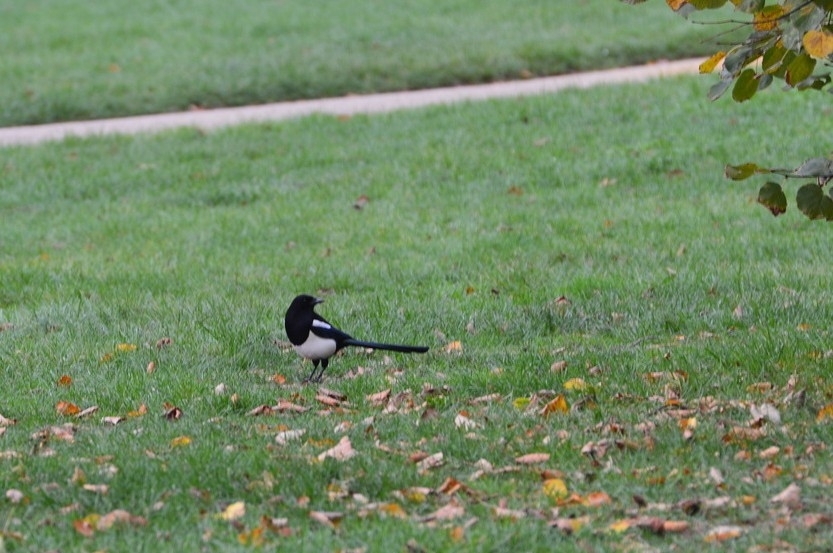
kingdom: Animalia
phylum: Chordata
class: Aves
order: Passeriformes
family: Corvidae
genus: Pica
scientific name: Pica pica
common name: Eurasian magpie
